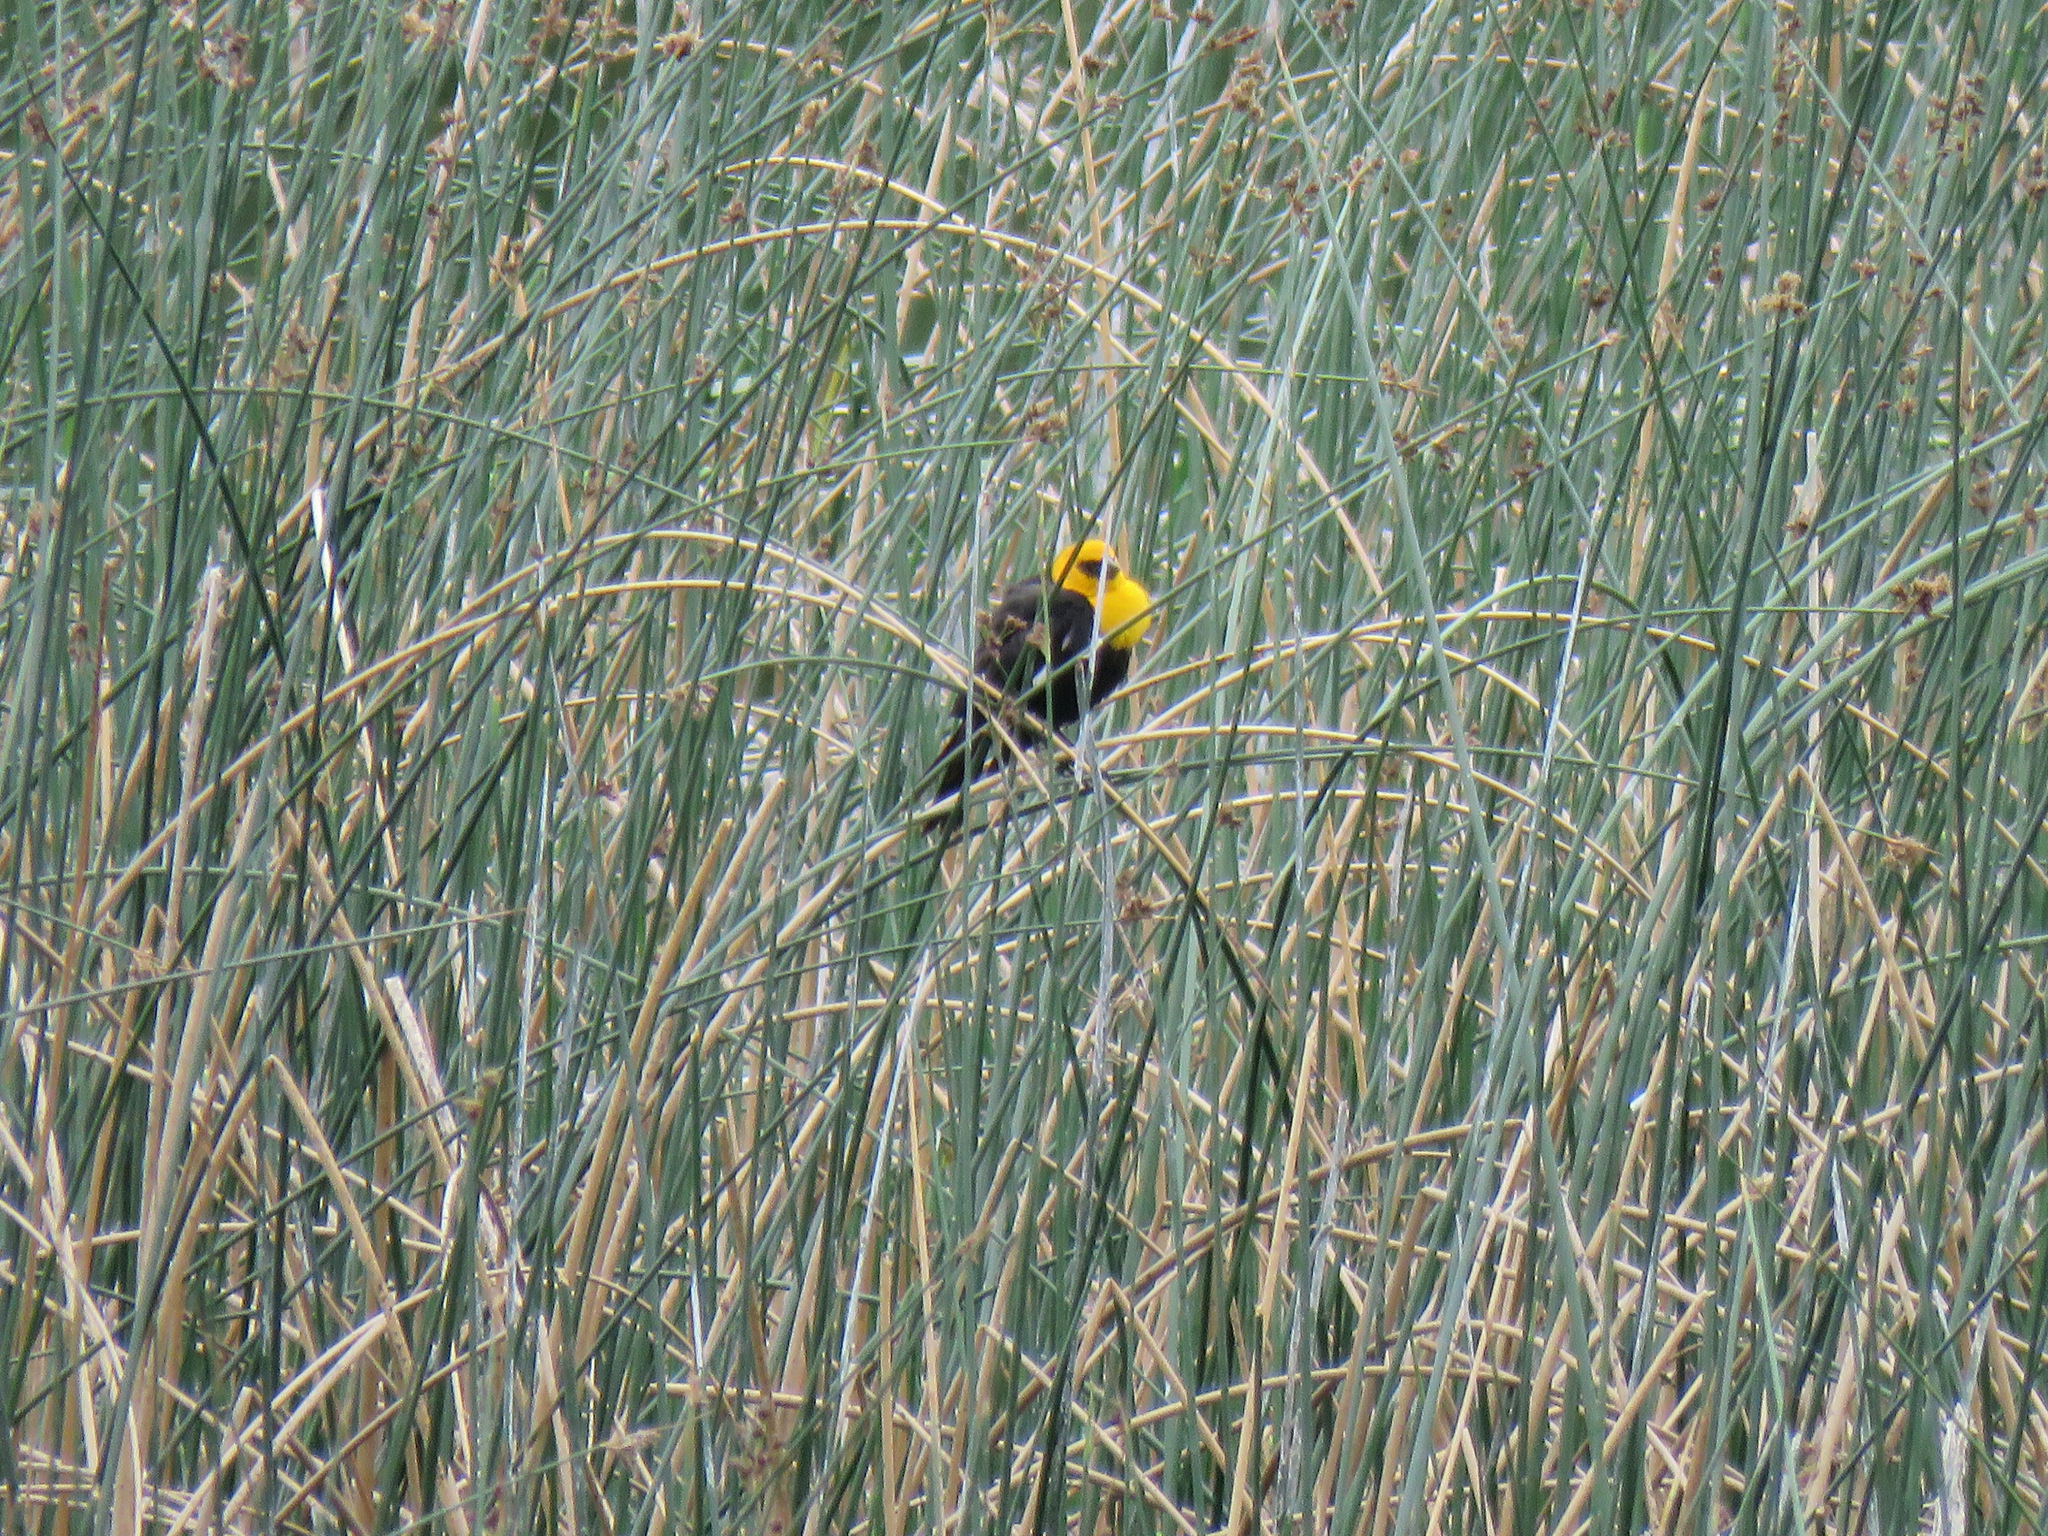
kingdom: Animalia
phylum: Chordata
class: Aves
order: Passeriformes
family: Icteridae
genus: Xanthocephalus
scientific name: Xanthocephalus xanthocephalus
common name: Yellow-headed blackbird
